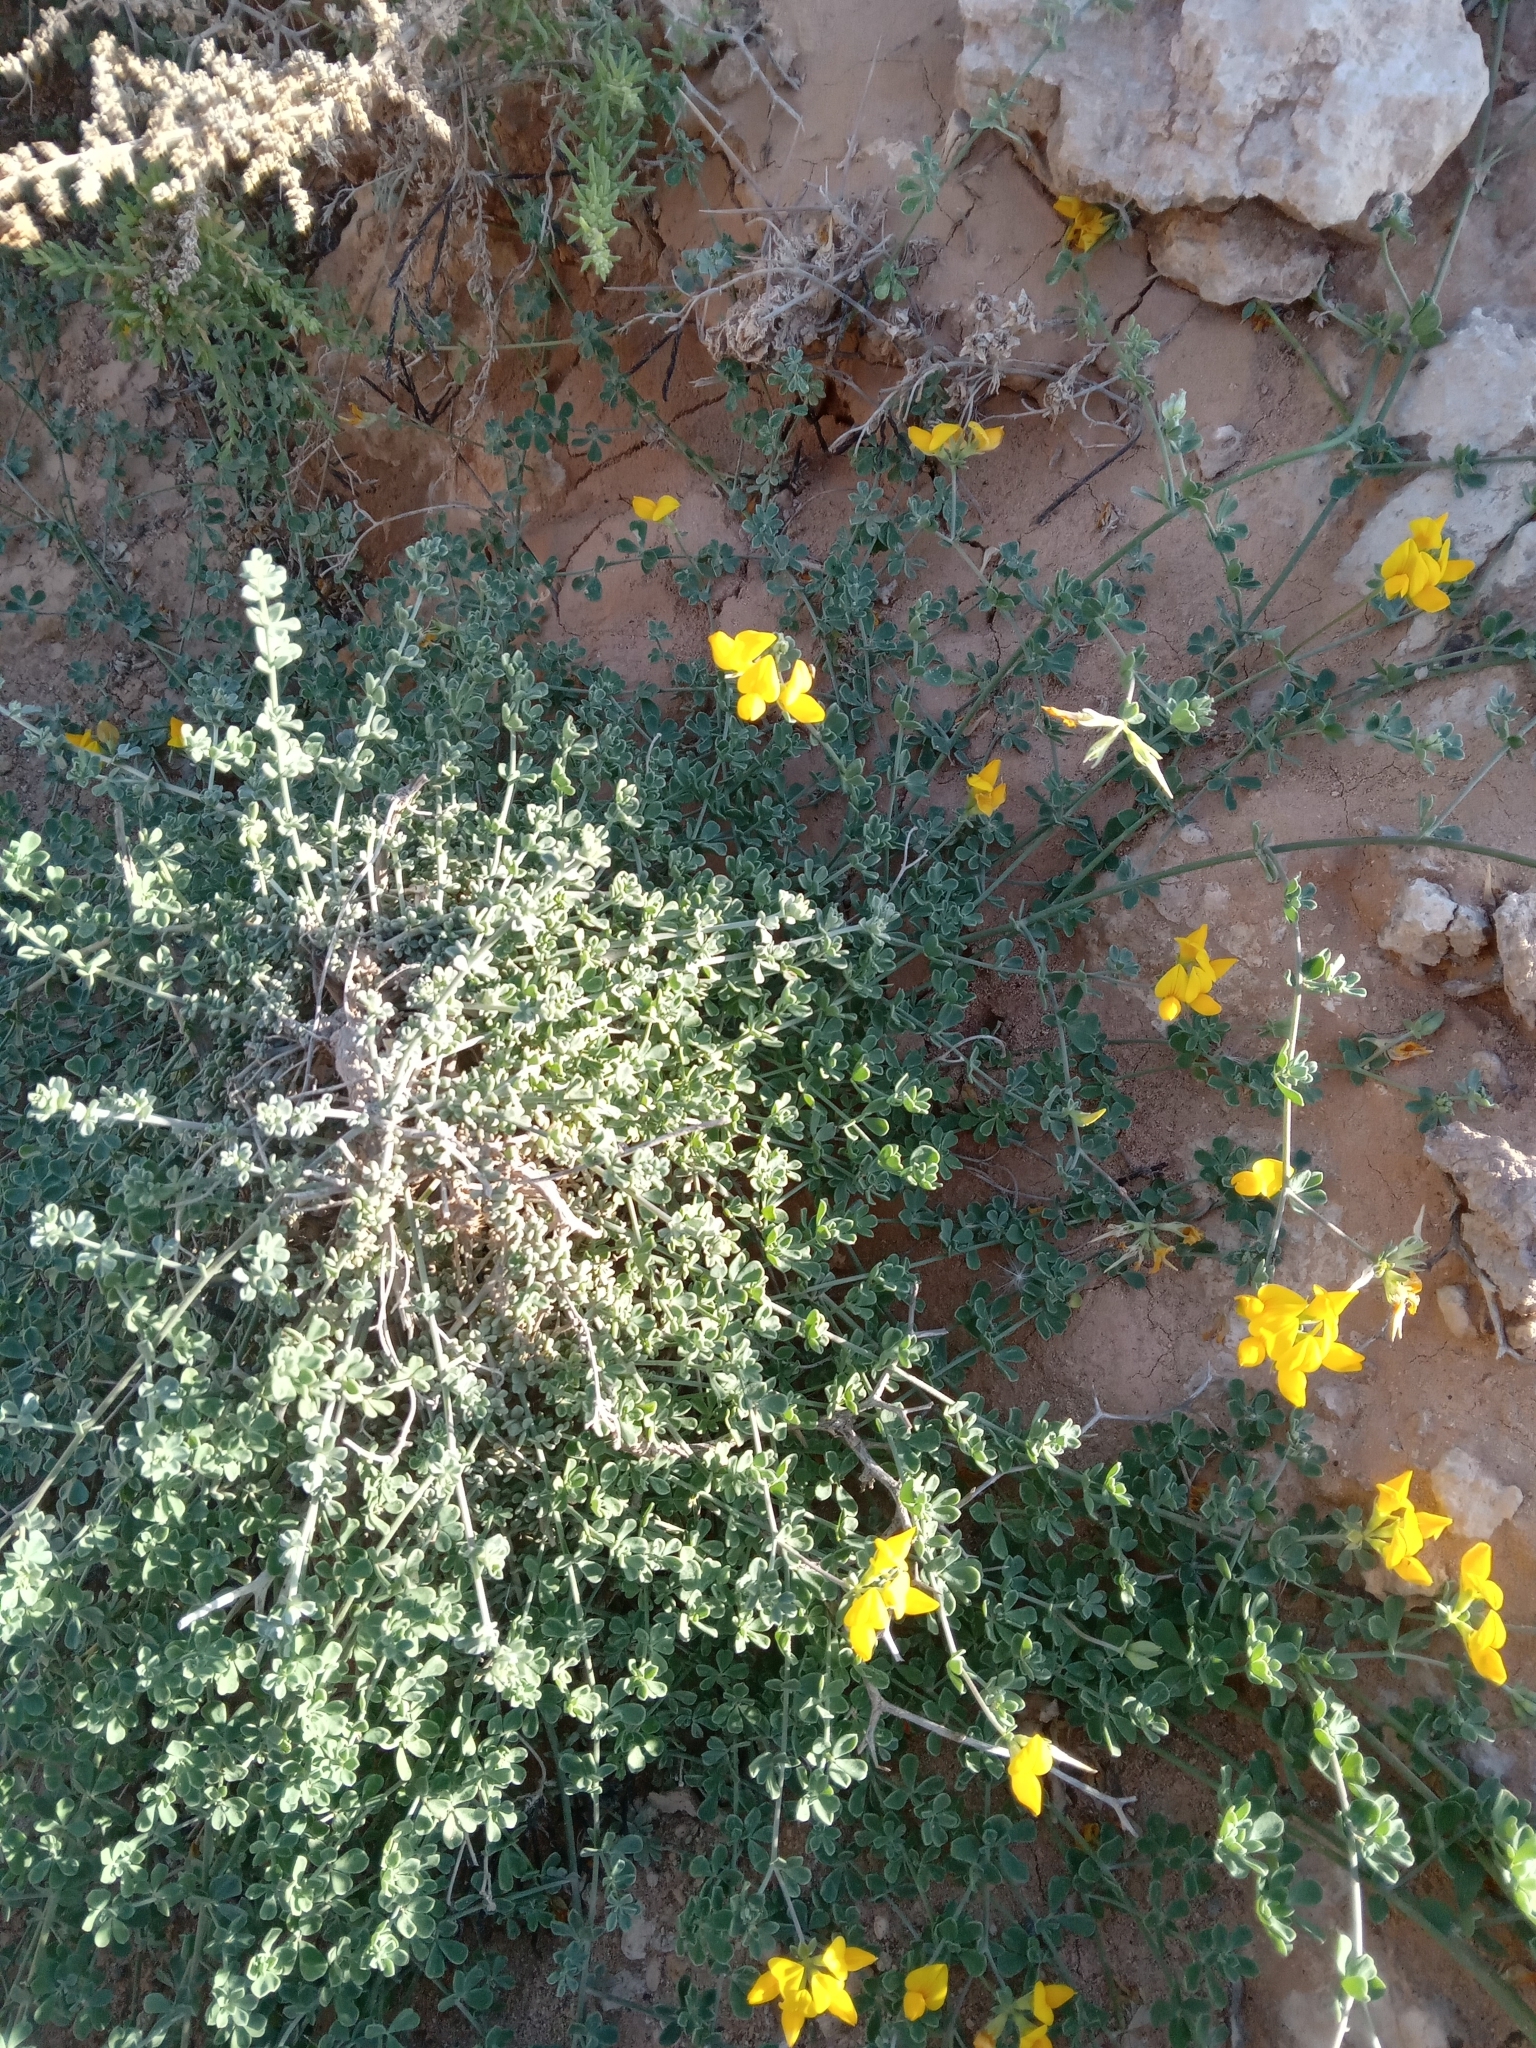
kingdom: Plantae
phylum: Tracheophyta
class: Magnoliopsida
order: Fabales
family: Fabaceae
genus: Lotus
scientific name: Lotus lancerottensis
